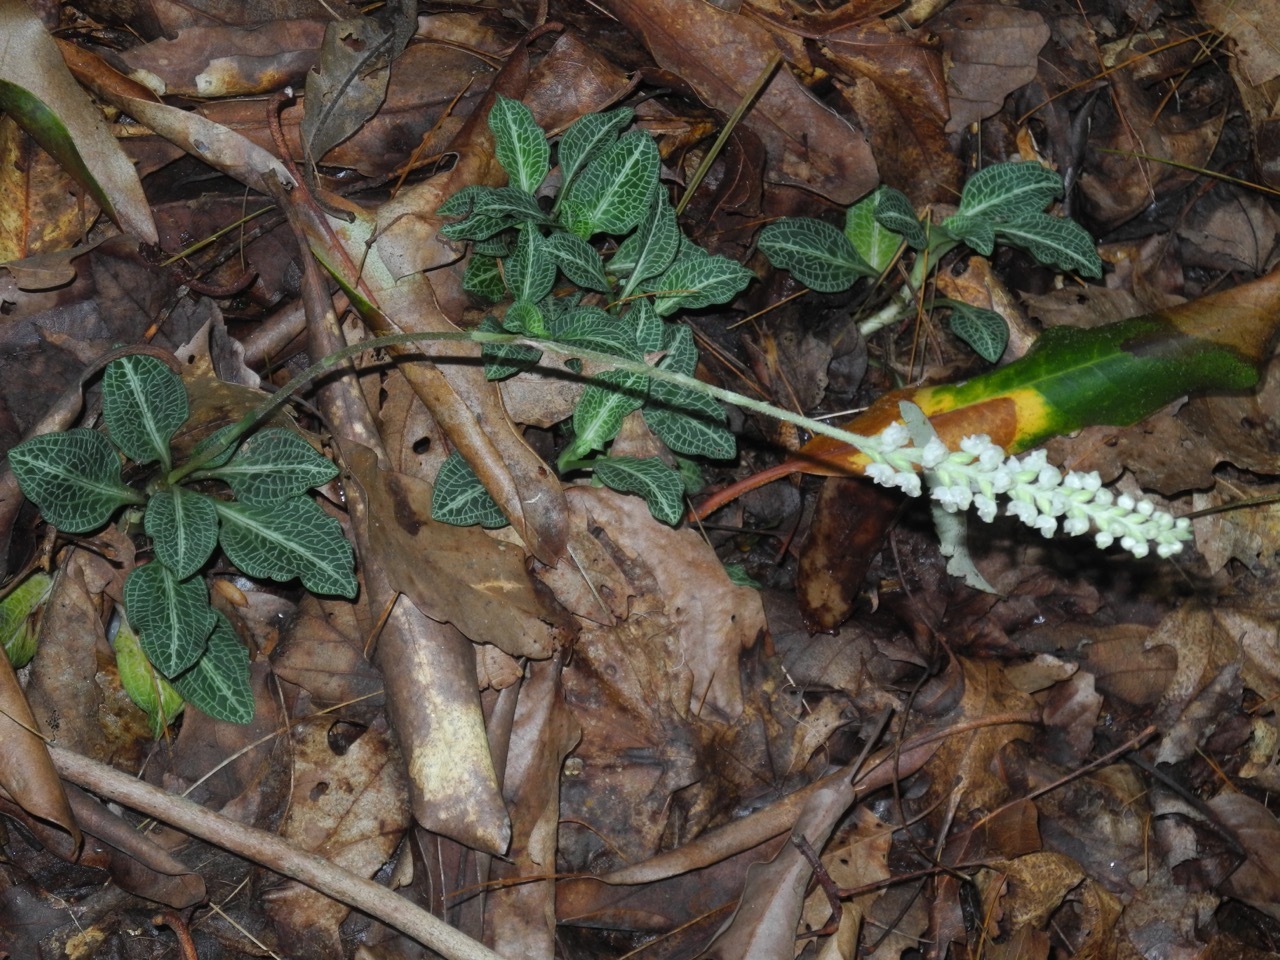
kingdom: Plantae
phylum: Tracheophyta
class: Liliopsida
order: Asparagales
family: Orchidaceae
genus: Goodyera
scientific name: Goodyera pubescens
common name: Downy rattlesnake-plantain
